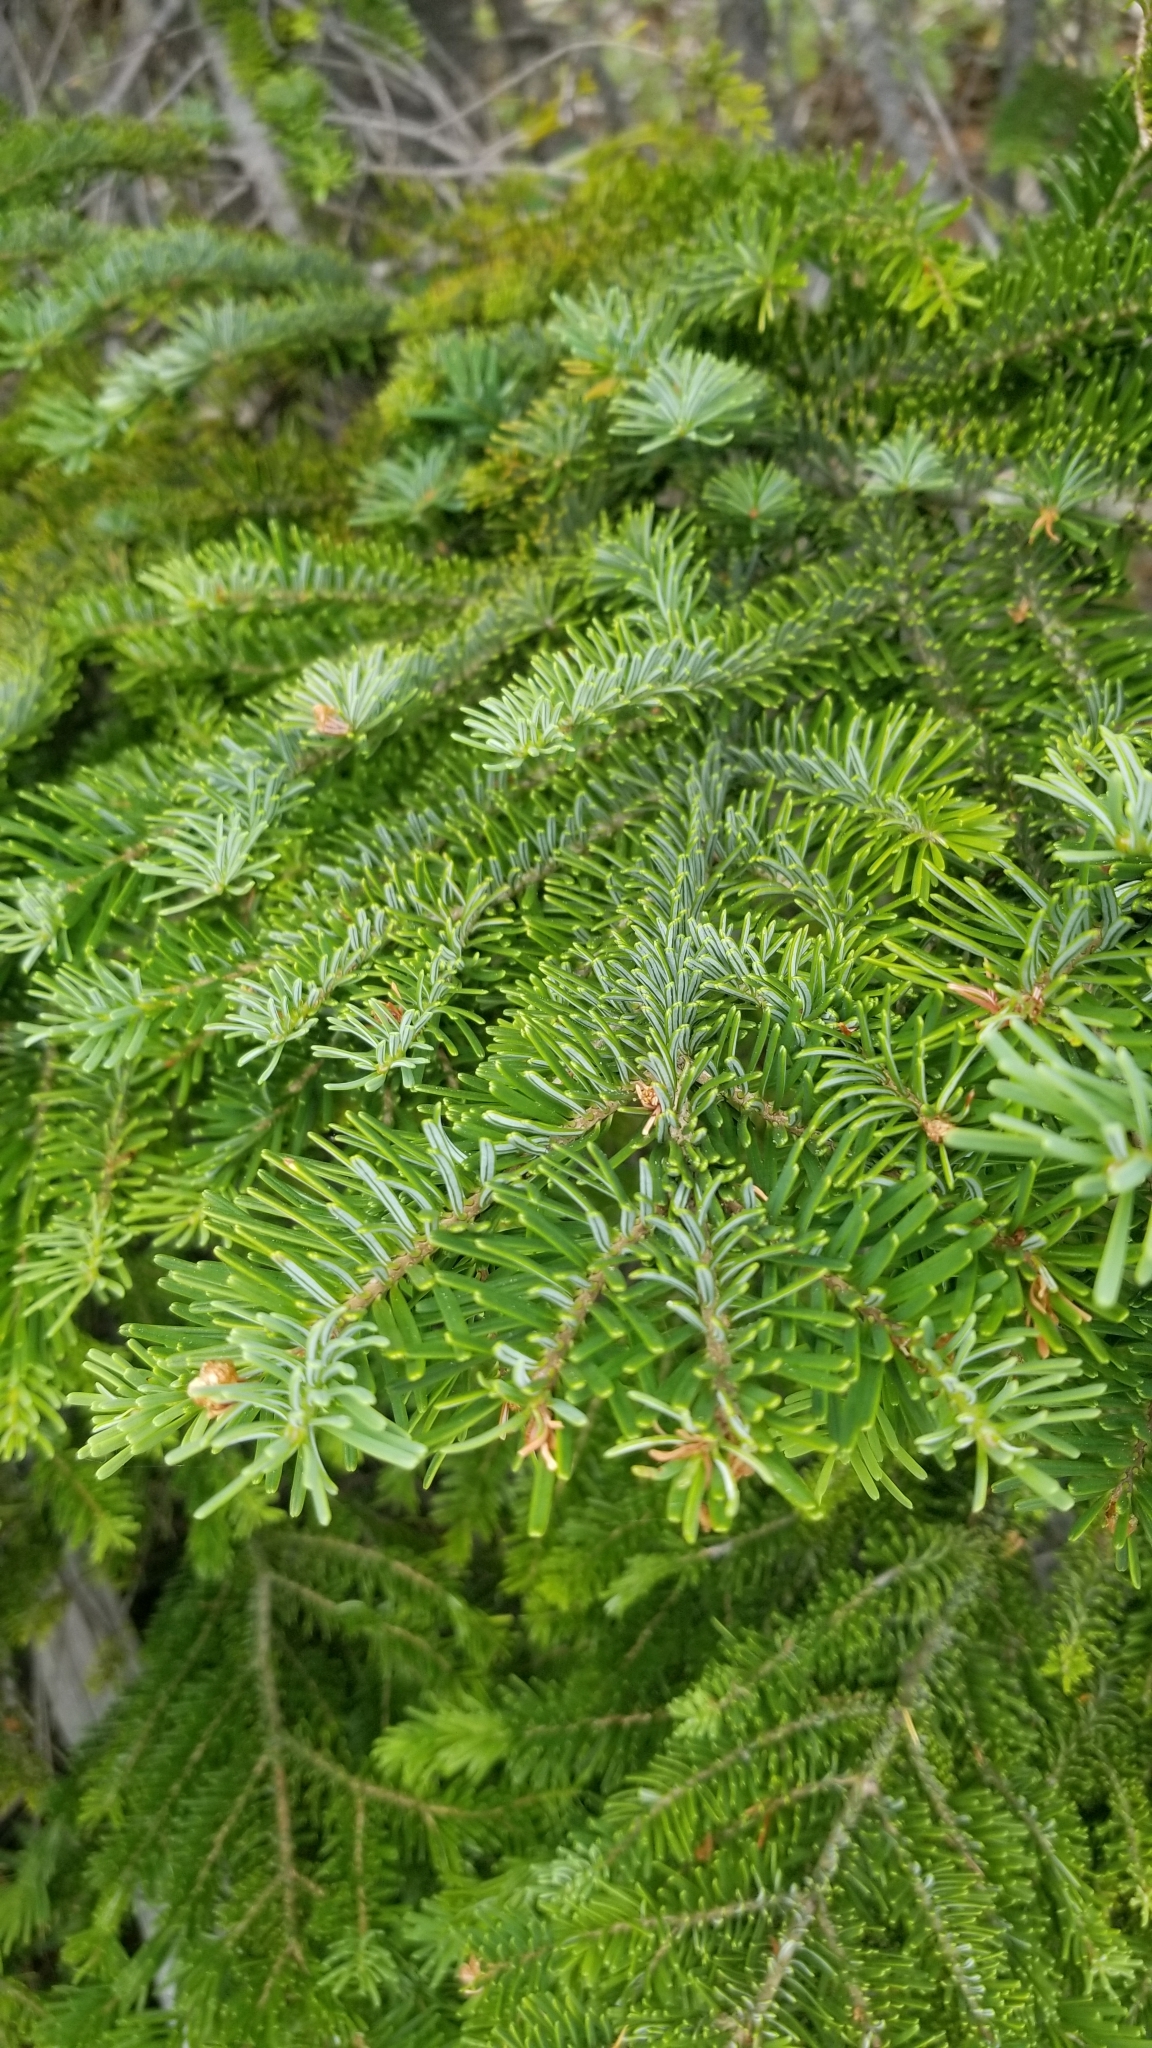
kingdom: Plantae
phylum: Tracheophyta
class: Pinopsida
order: Pinales
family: Pinaceae
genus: Abies
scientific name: Abies amabilis
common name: Pacific silver fir
